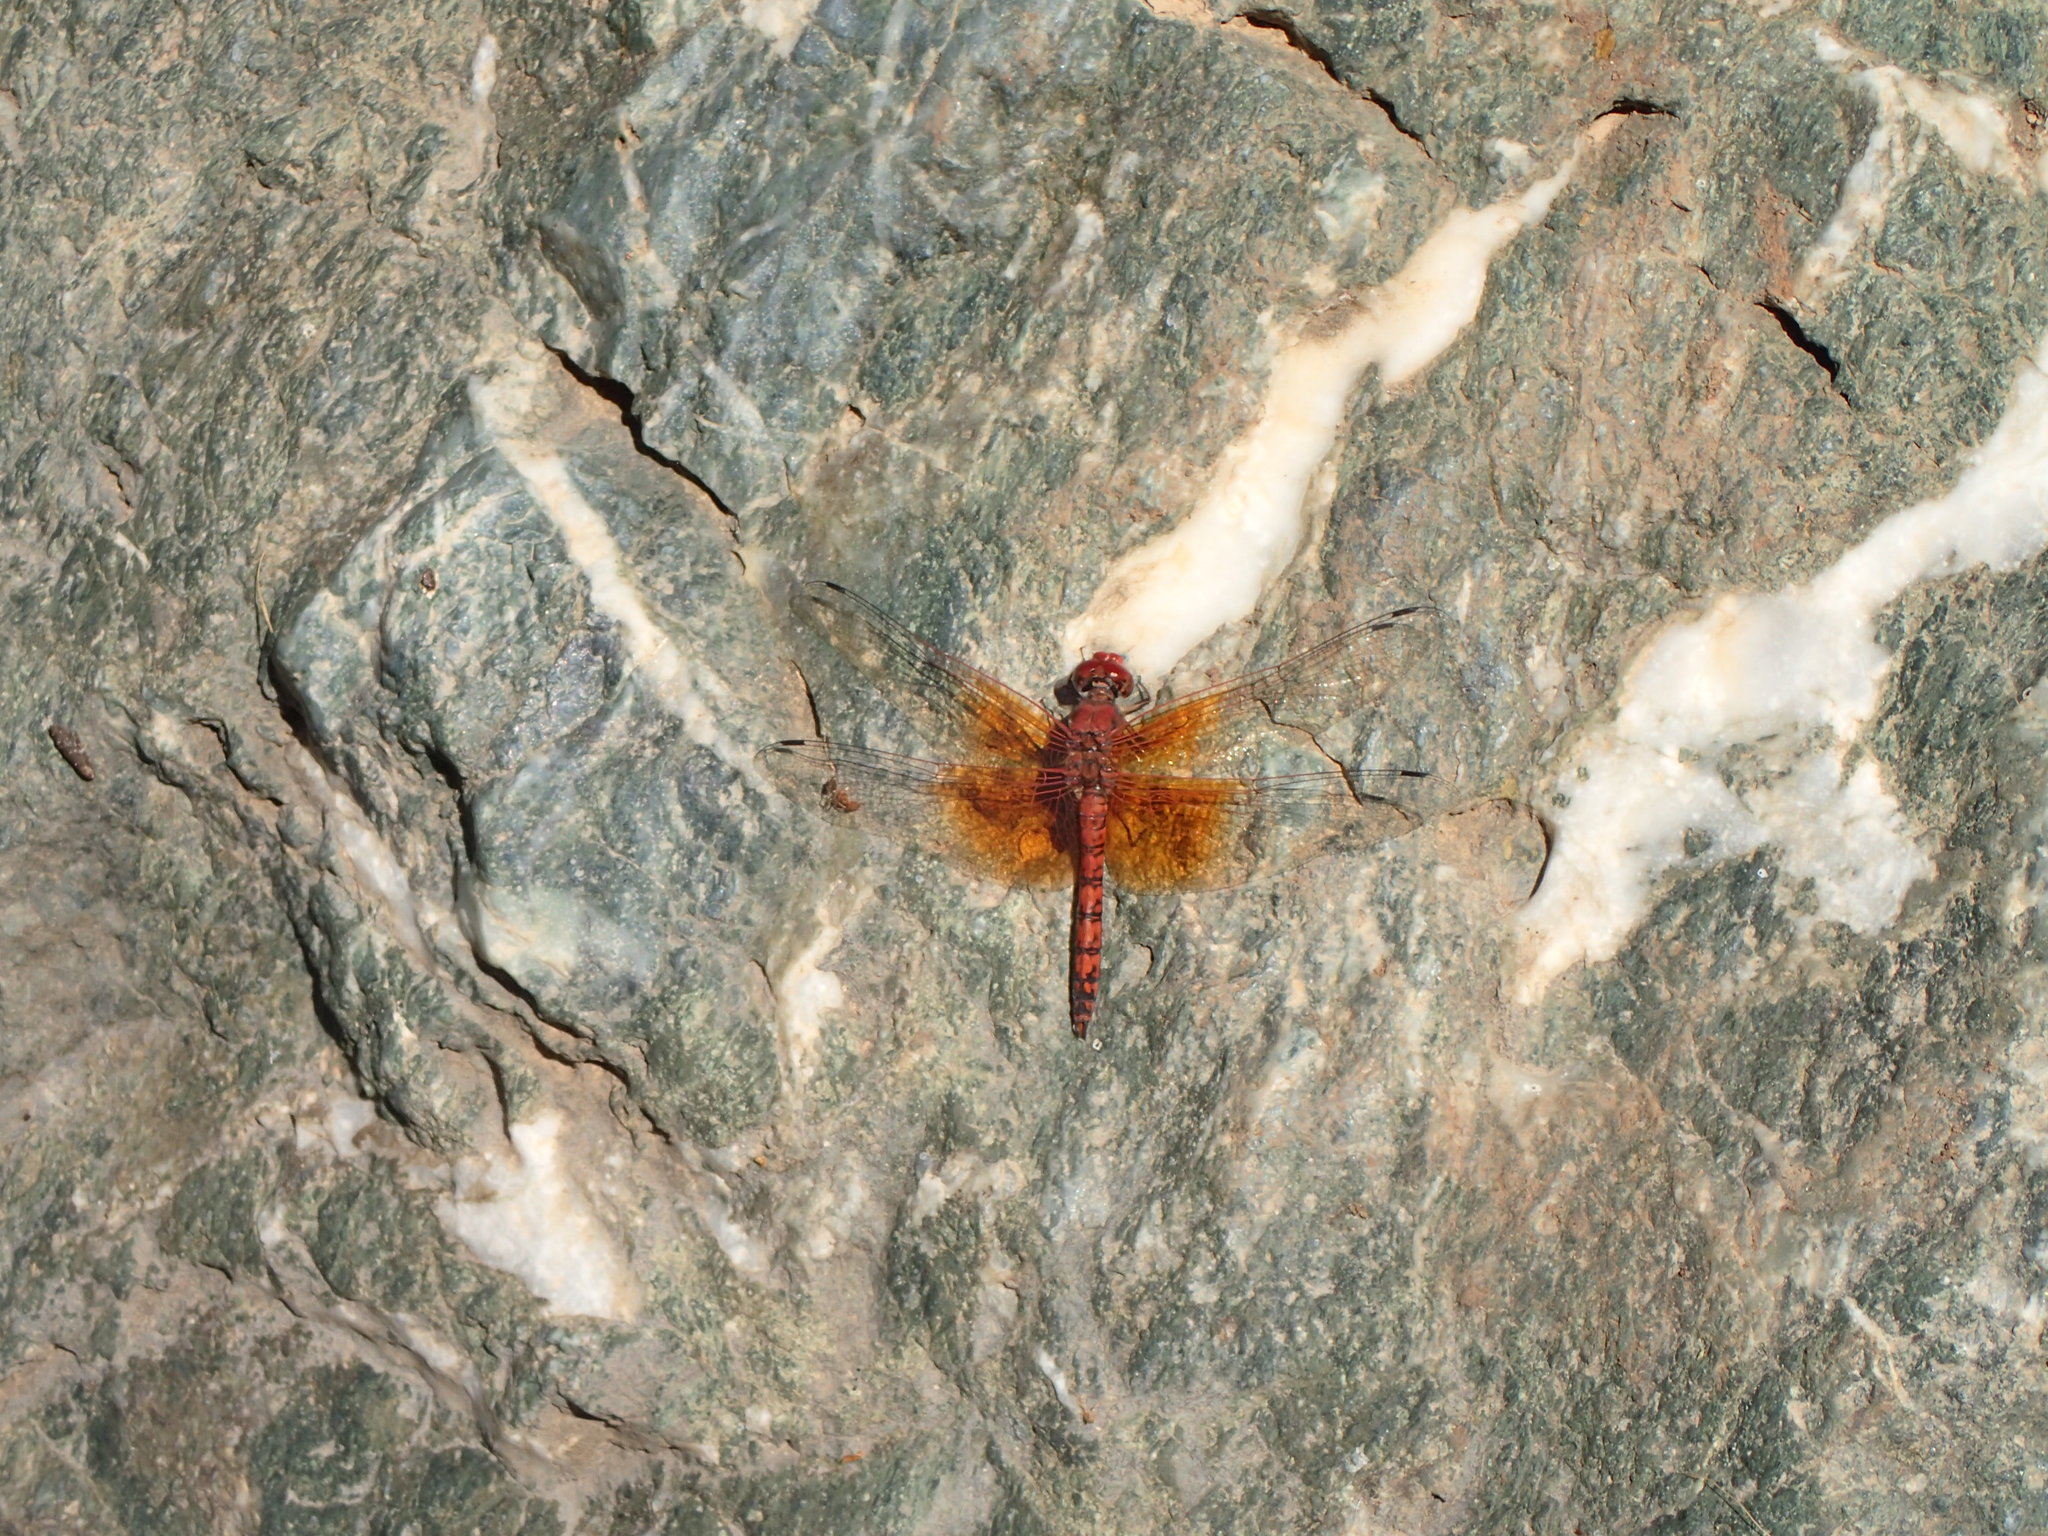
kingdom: Animalia
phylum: Arthropoda
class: Insecta
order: Odonata
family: Libellulidae
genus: Paltothemis
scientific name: Paltothemis lineatipes
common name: Red rock skimmer
